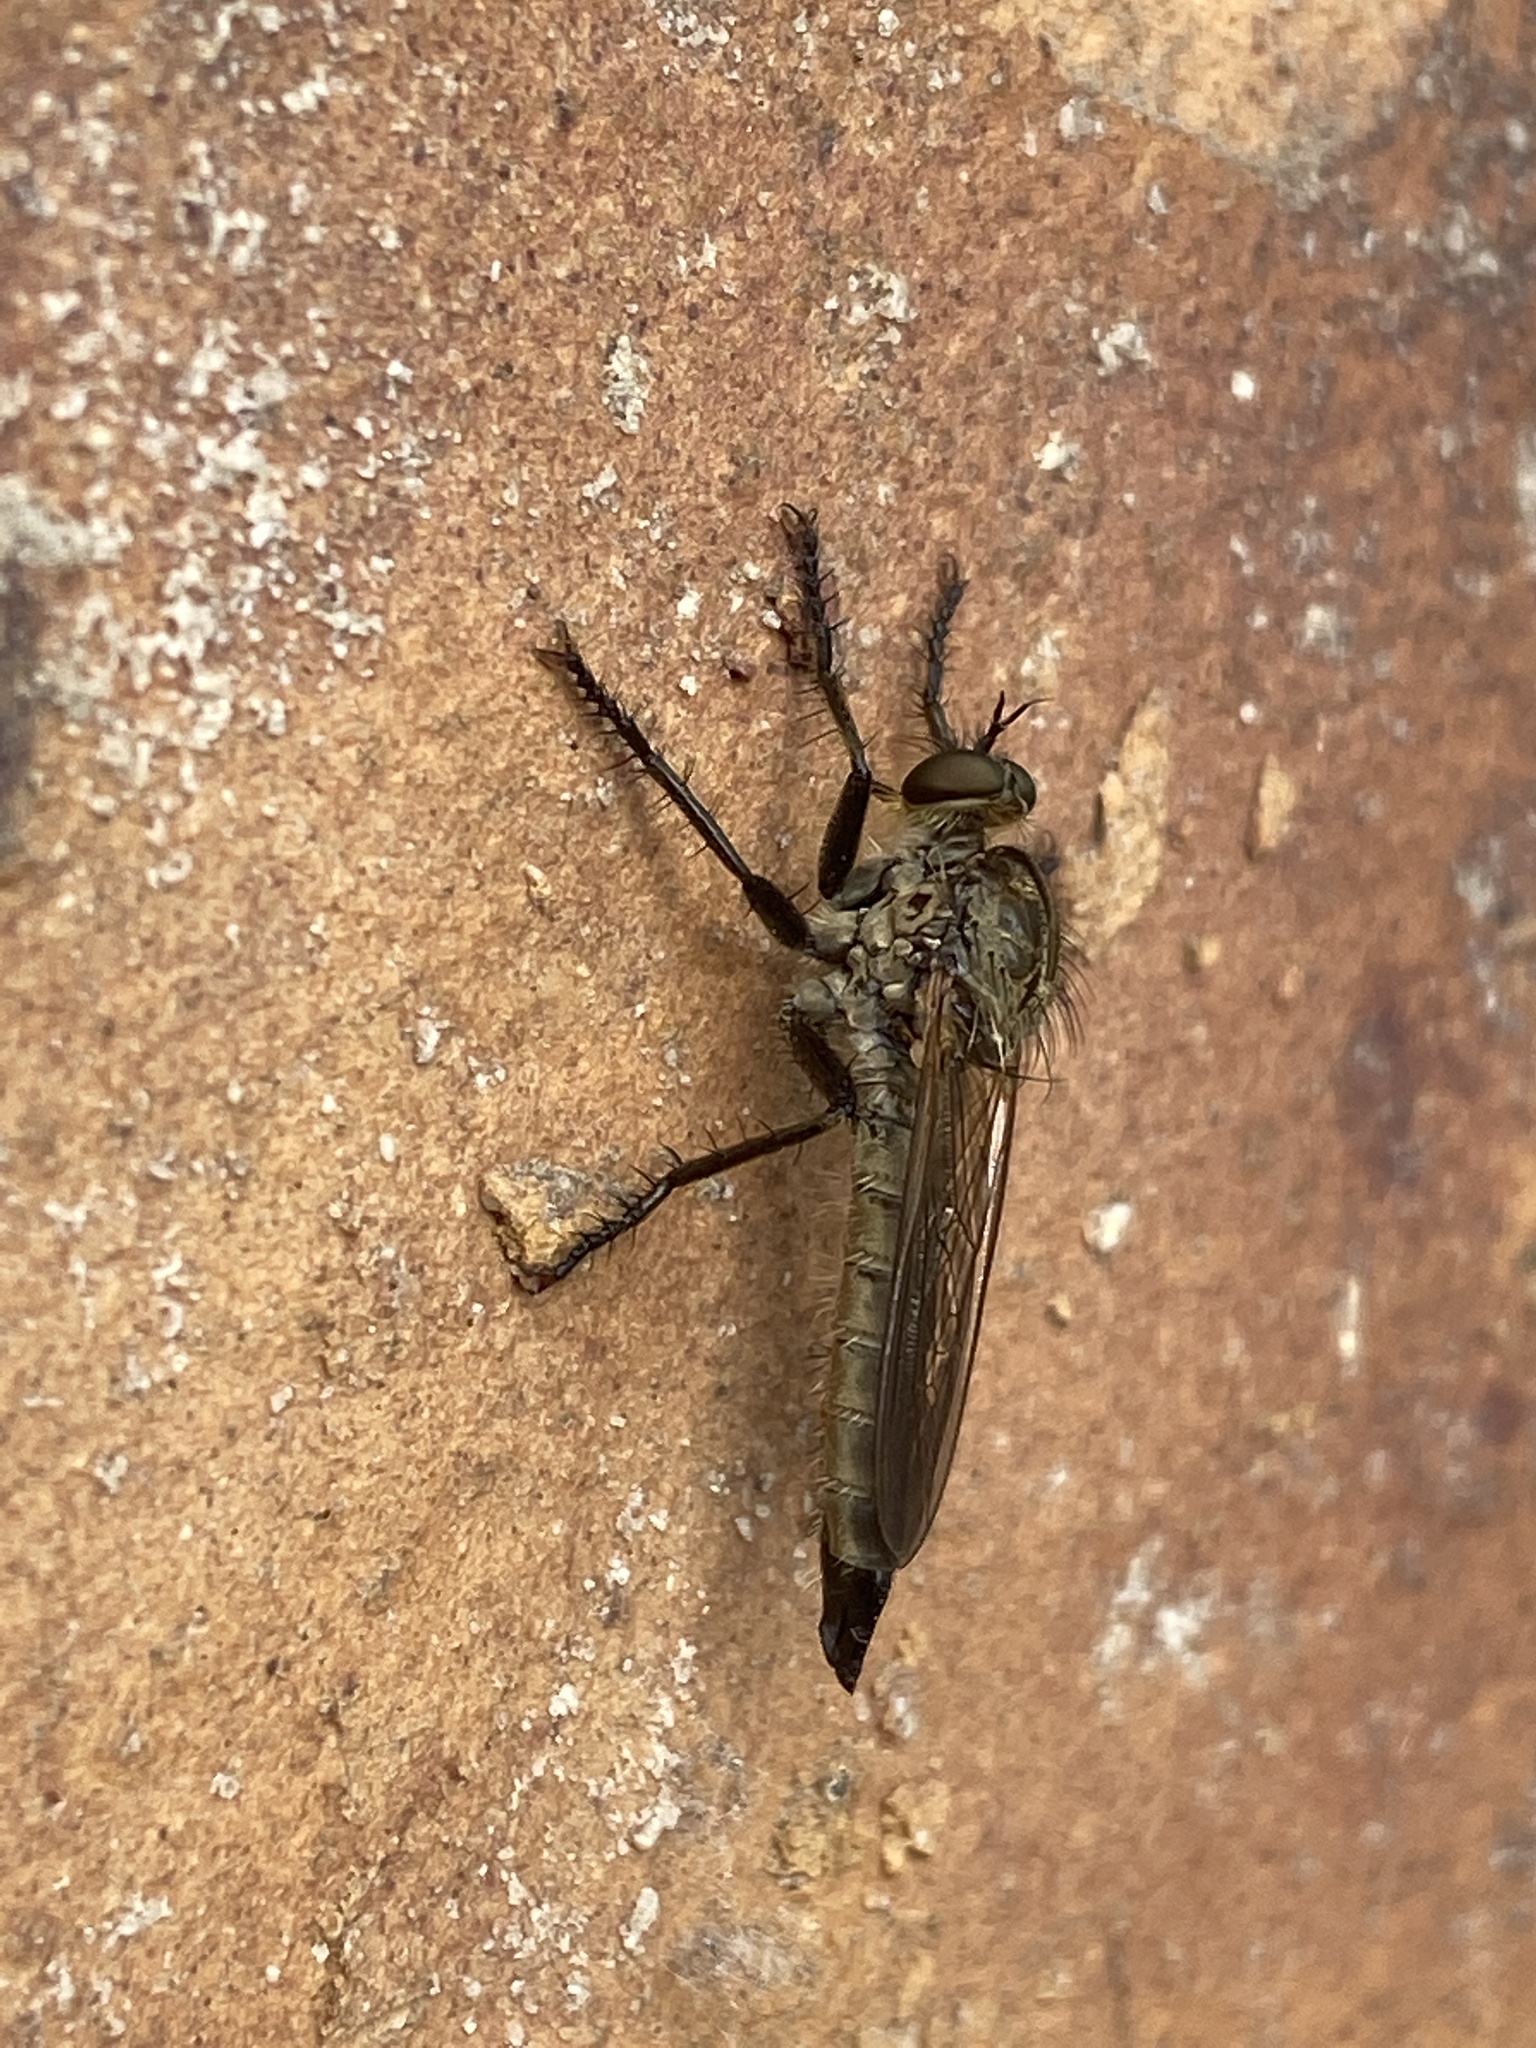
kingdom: Animalia
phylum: Arthropoda
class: Insecta
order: Diptera
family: Asilidae
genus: Eutolmus
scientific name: Eutolmus rufibarbis
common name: Golden-tabbed robberfly
